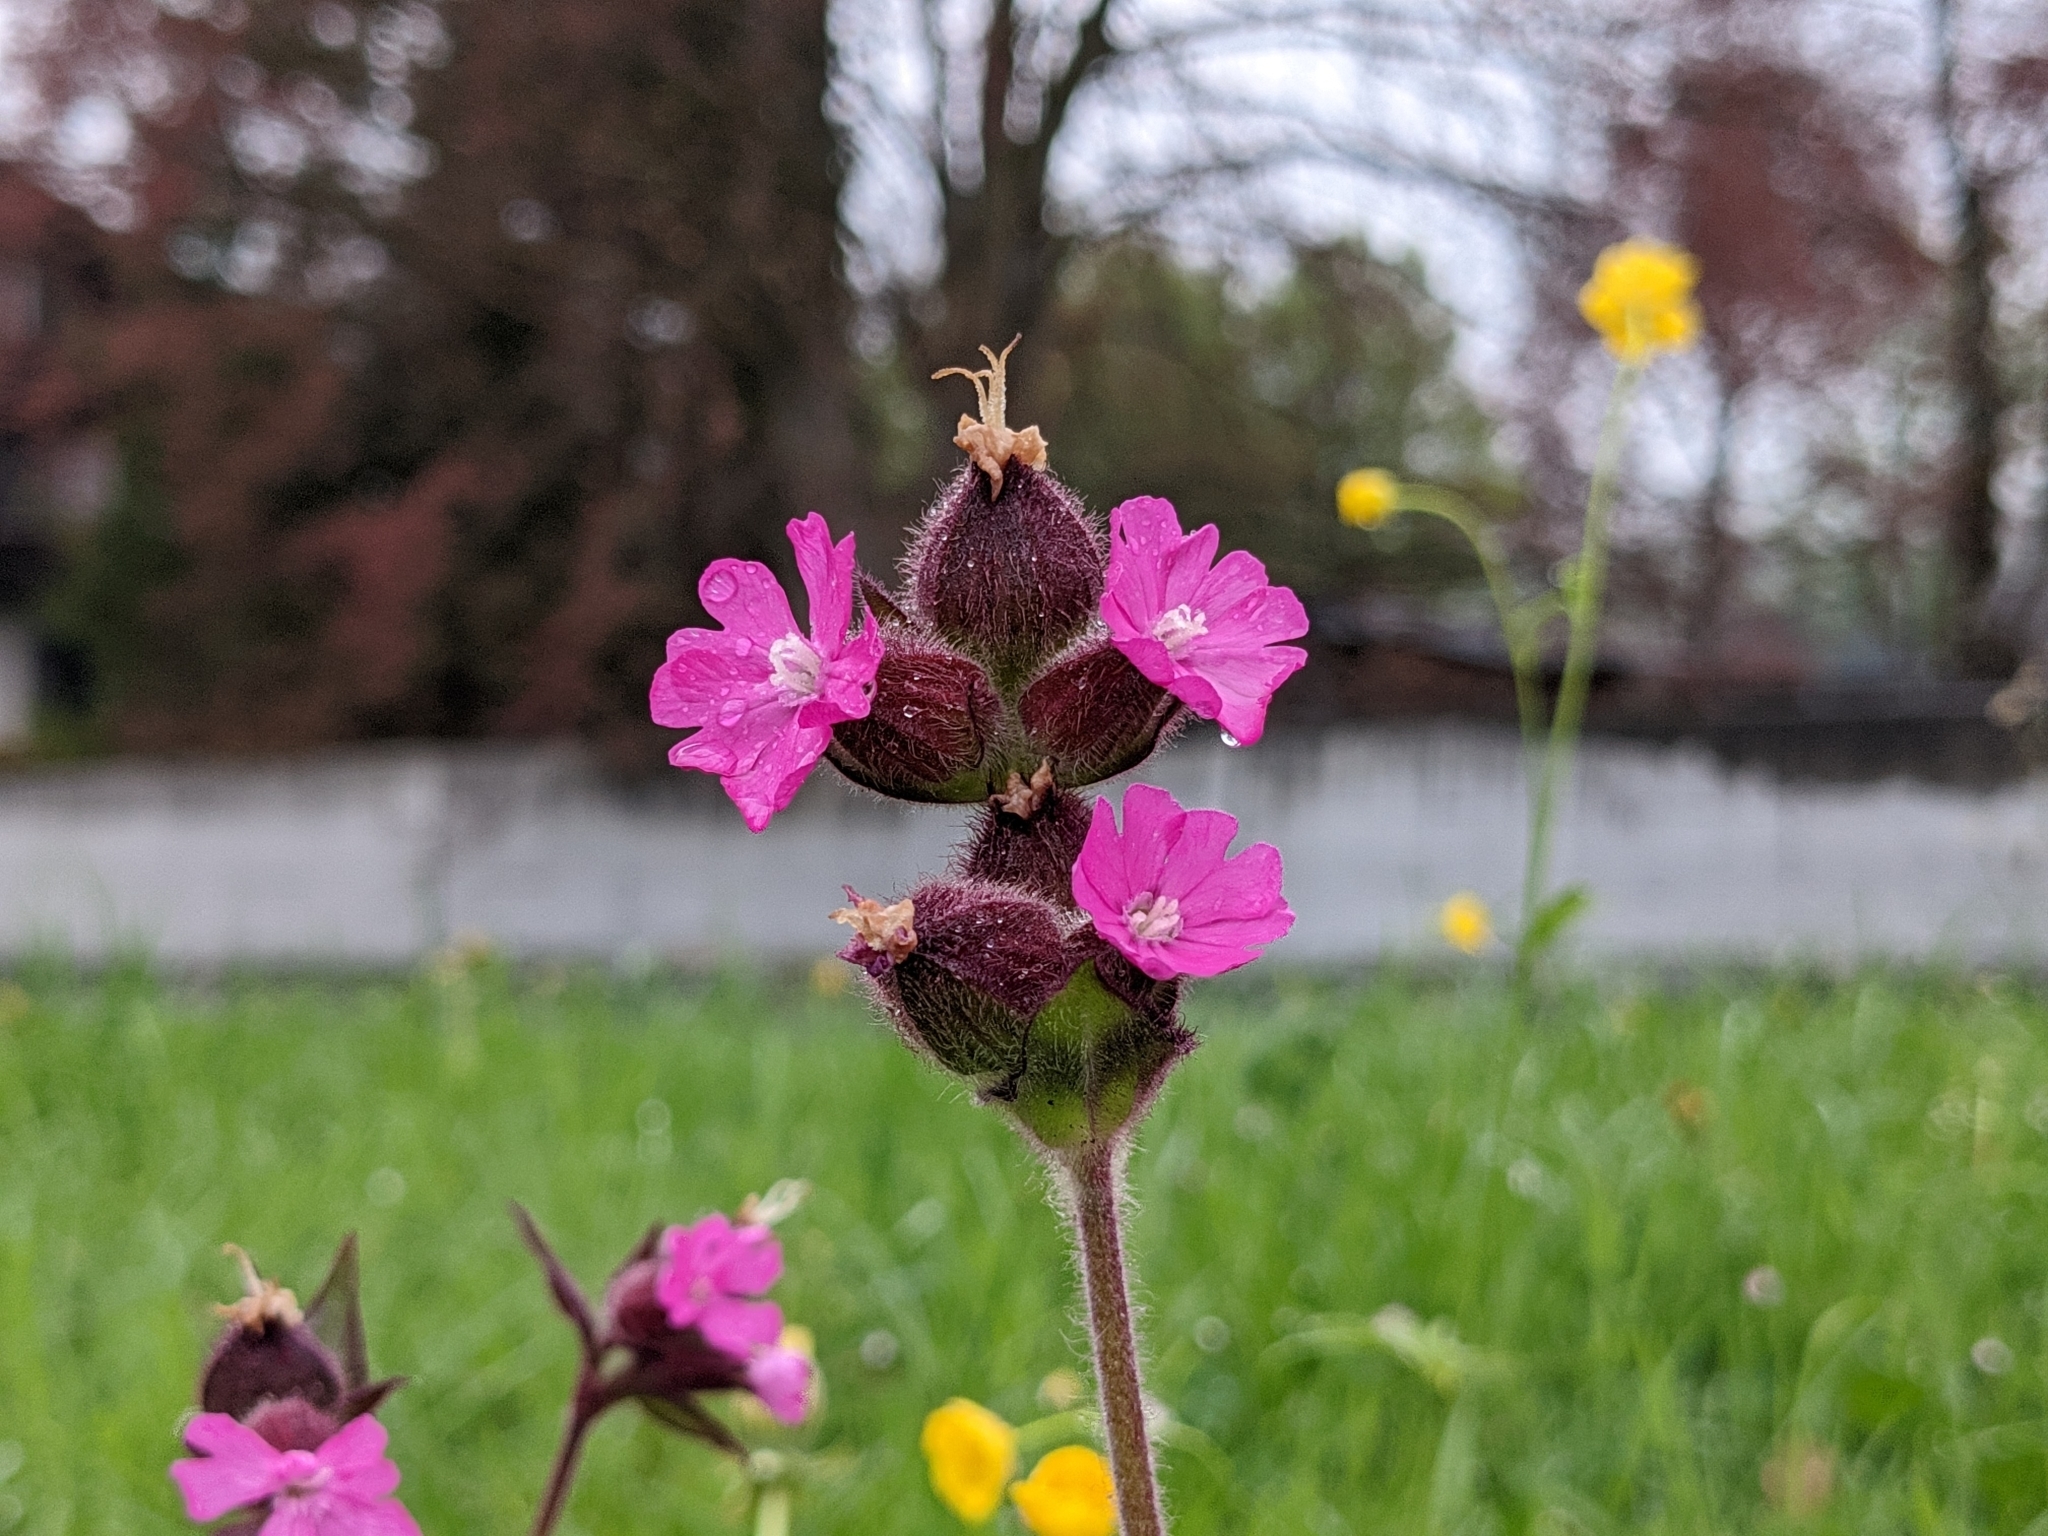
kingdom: Plantae
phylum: Tracheophyta
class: Magnoliopsida
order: Caryophyllales
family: Caryophyllaceae
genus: Silene
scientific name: Silene dioica
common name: Red campion
